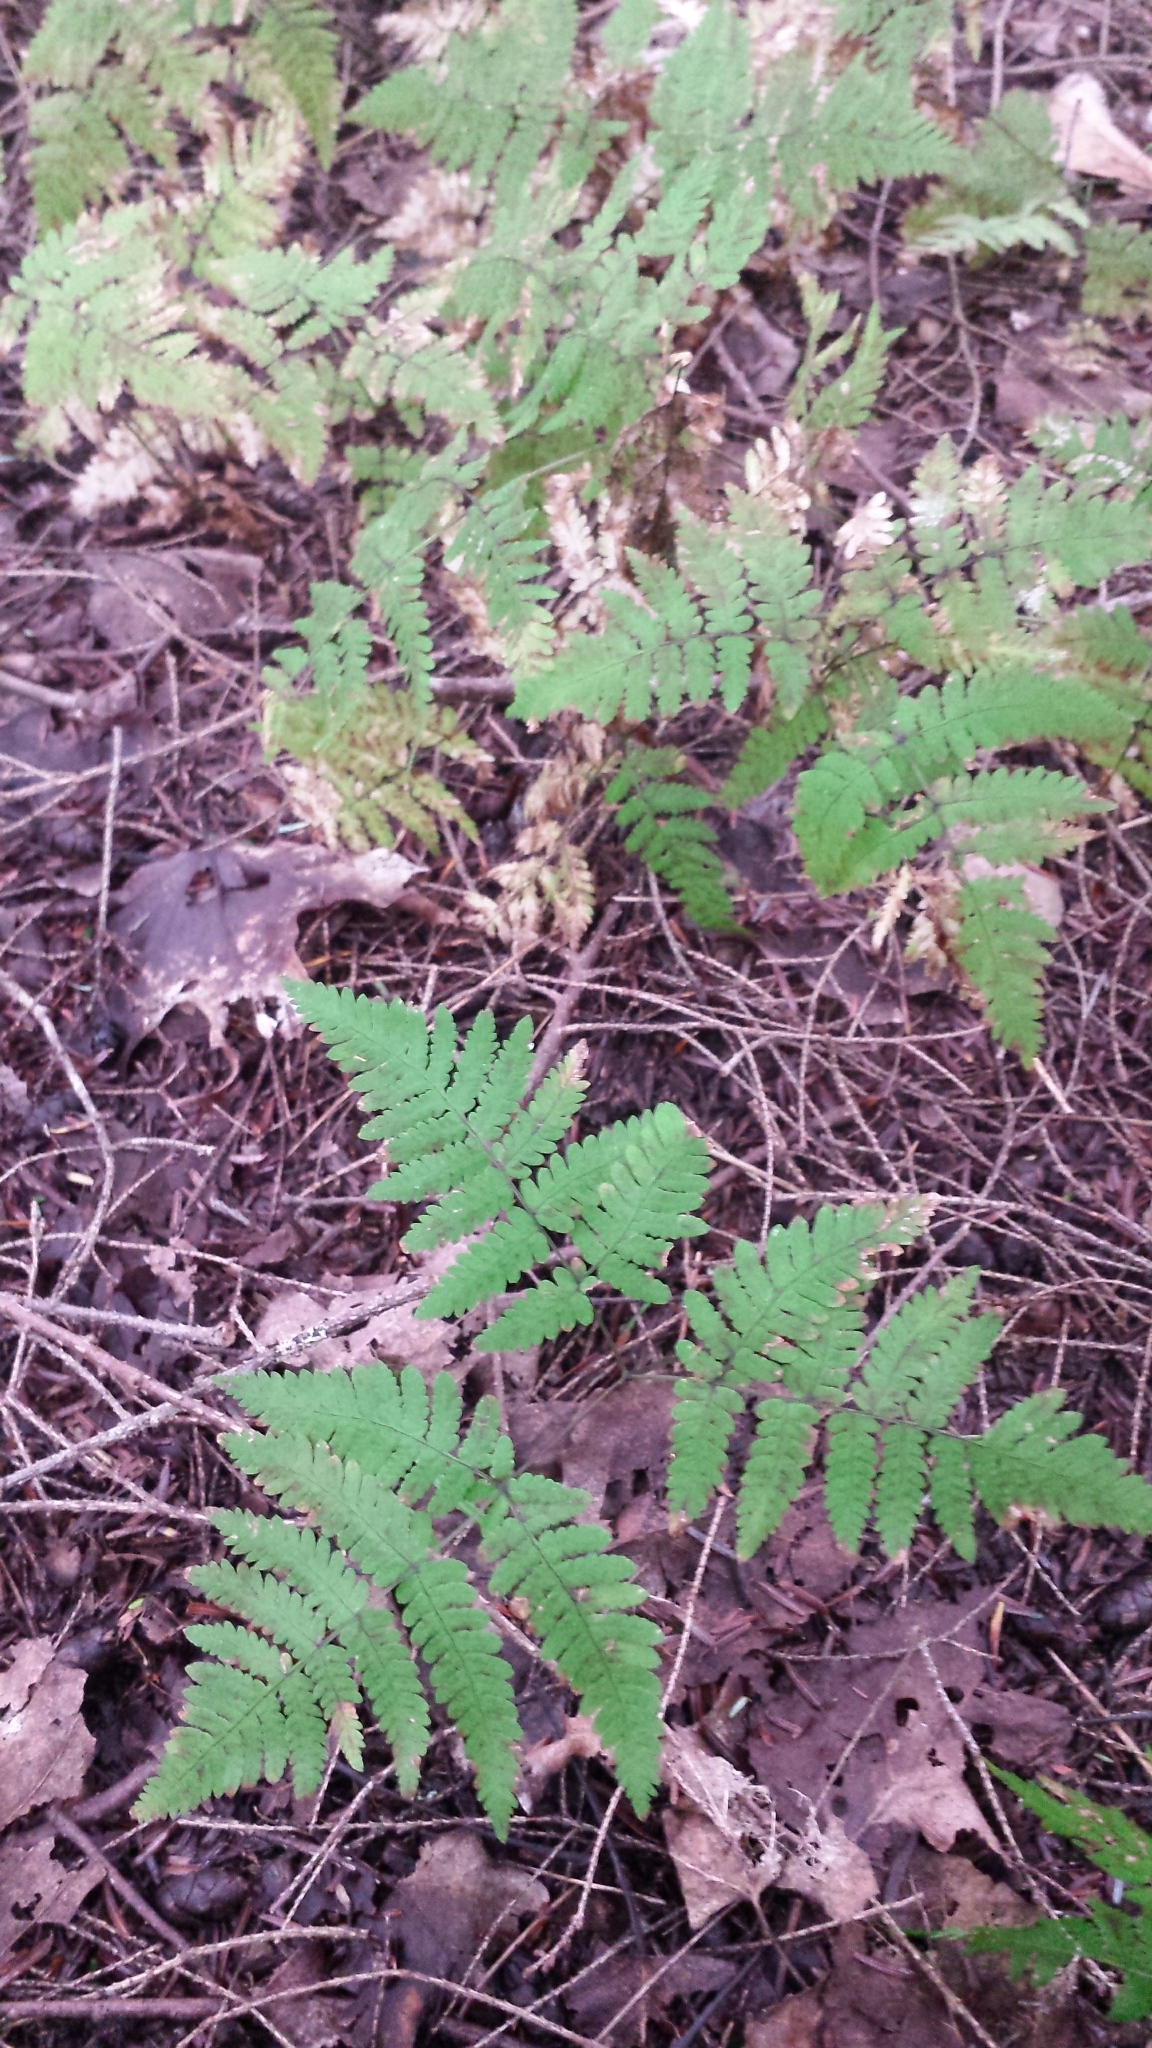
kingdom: Plantae
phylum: Tracheophyta
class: Polypodiopsida
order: Polypodiales
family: Cystopteridaceae
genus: Gymnocarpium
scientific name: Gymnocarpium dryopteris
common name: Oak fern
